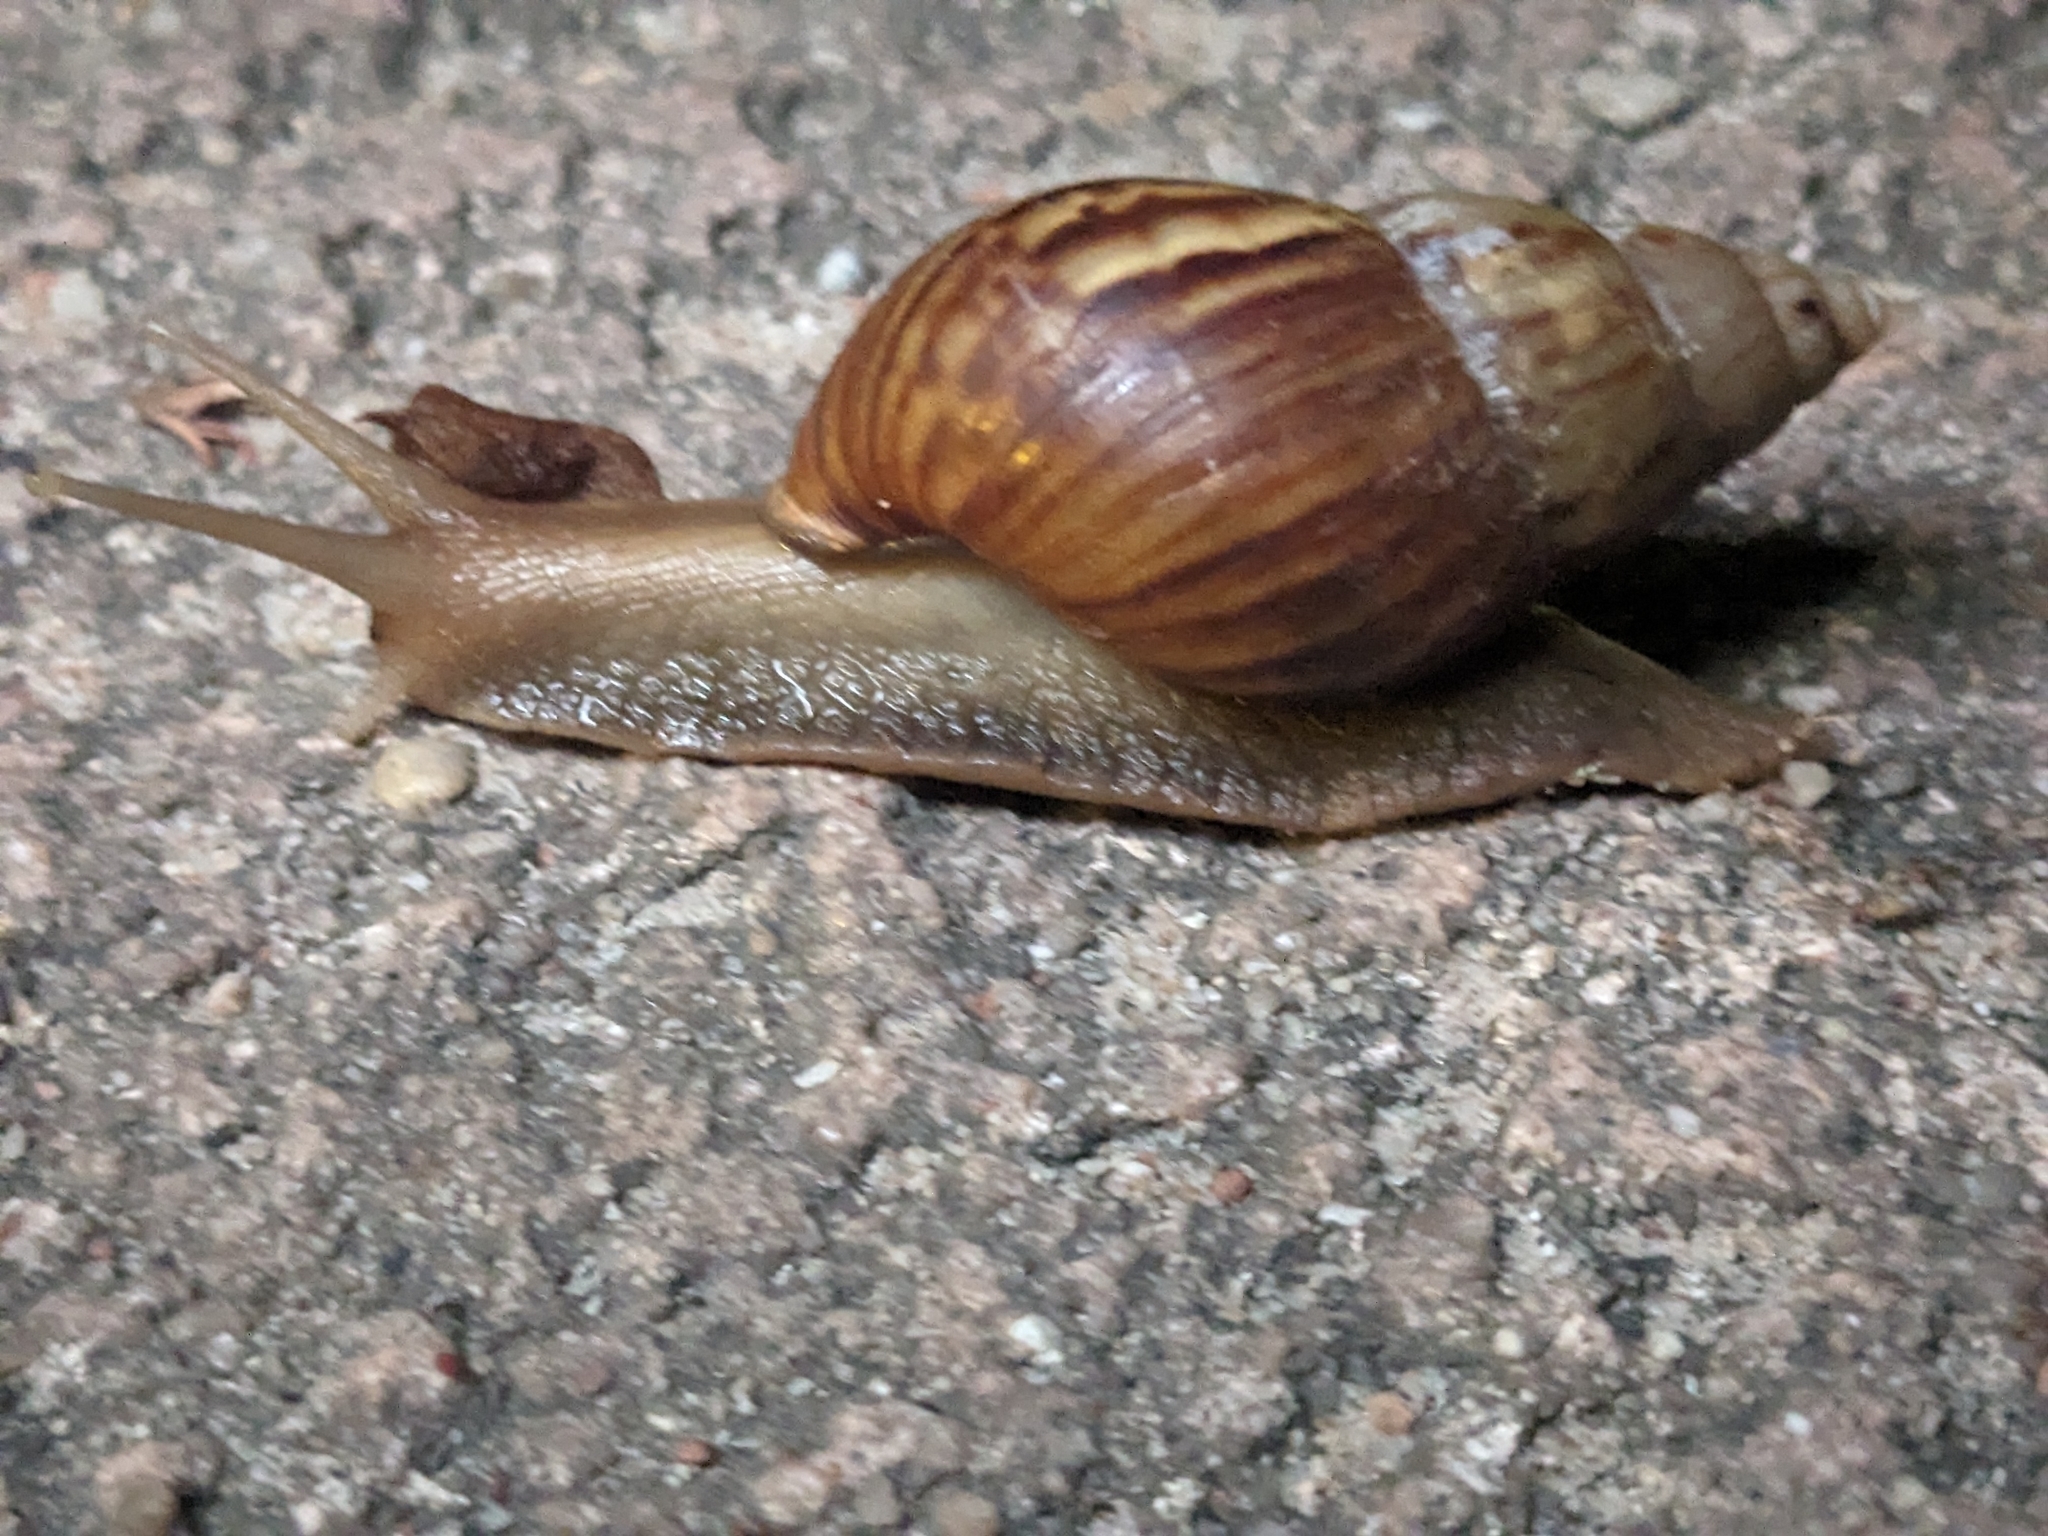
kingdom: Animalia
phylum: Mollusca
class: Gastropoda
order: Stylommatophora
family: Achatinidae
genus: Lissachatina
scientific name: Lissachatina fulica
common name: Giant african snail
